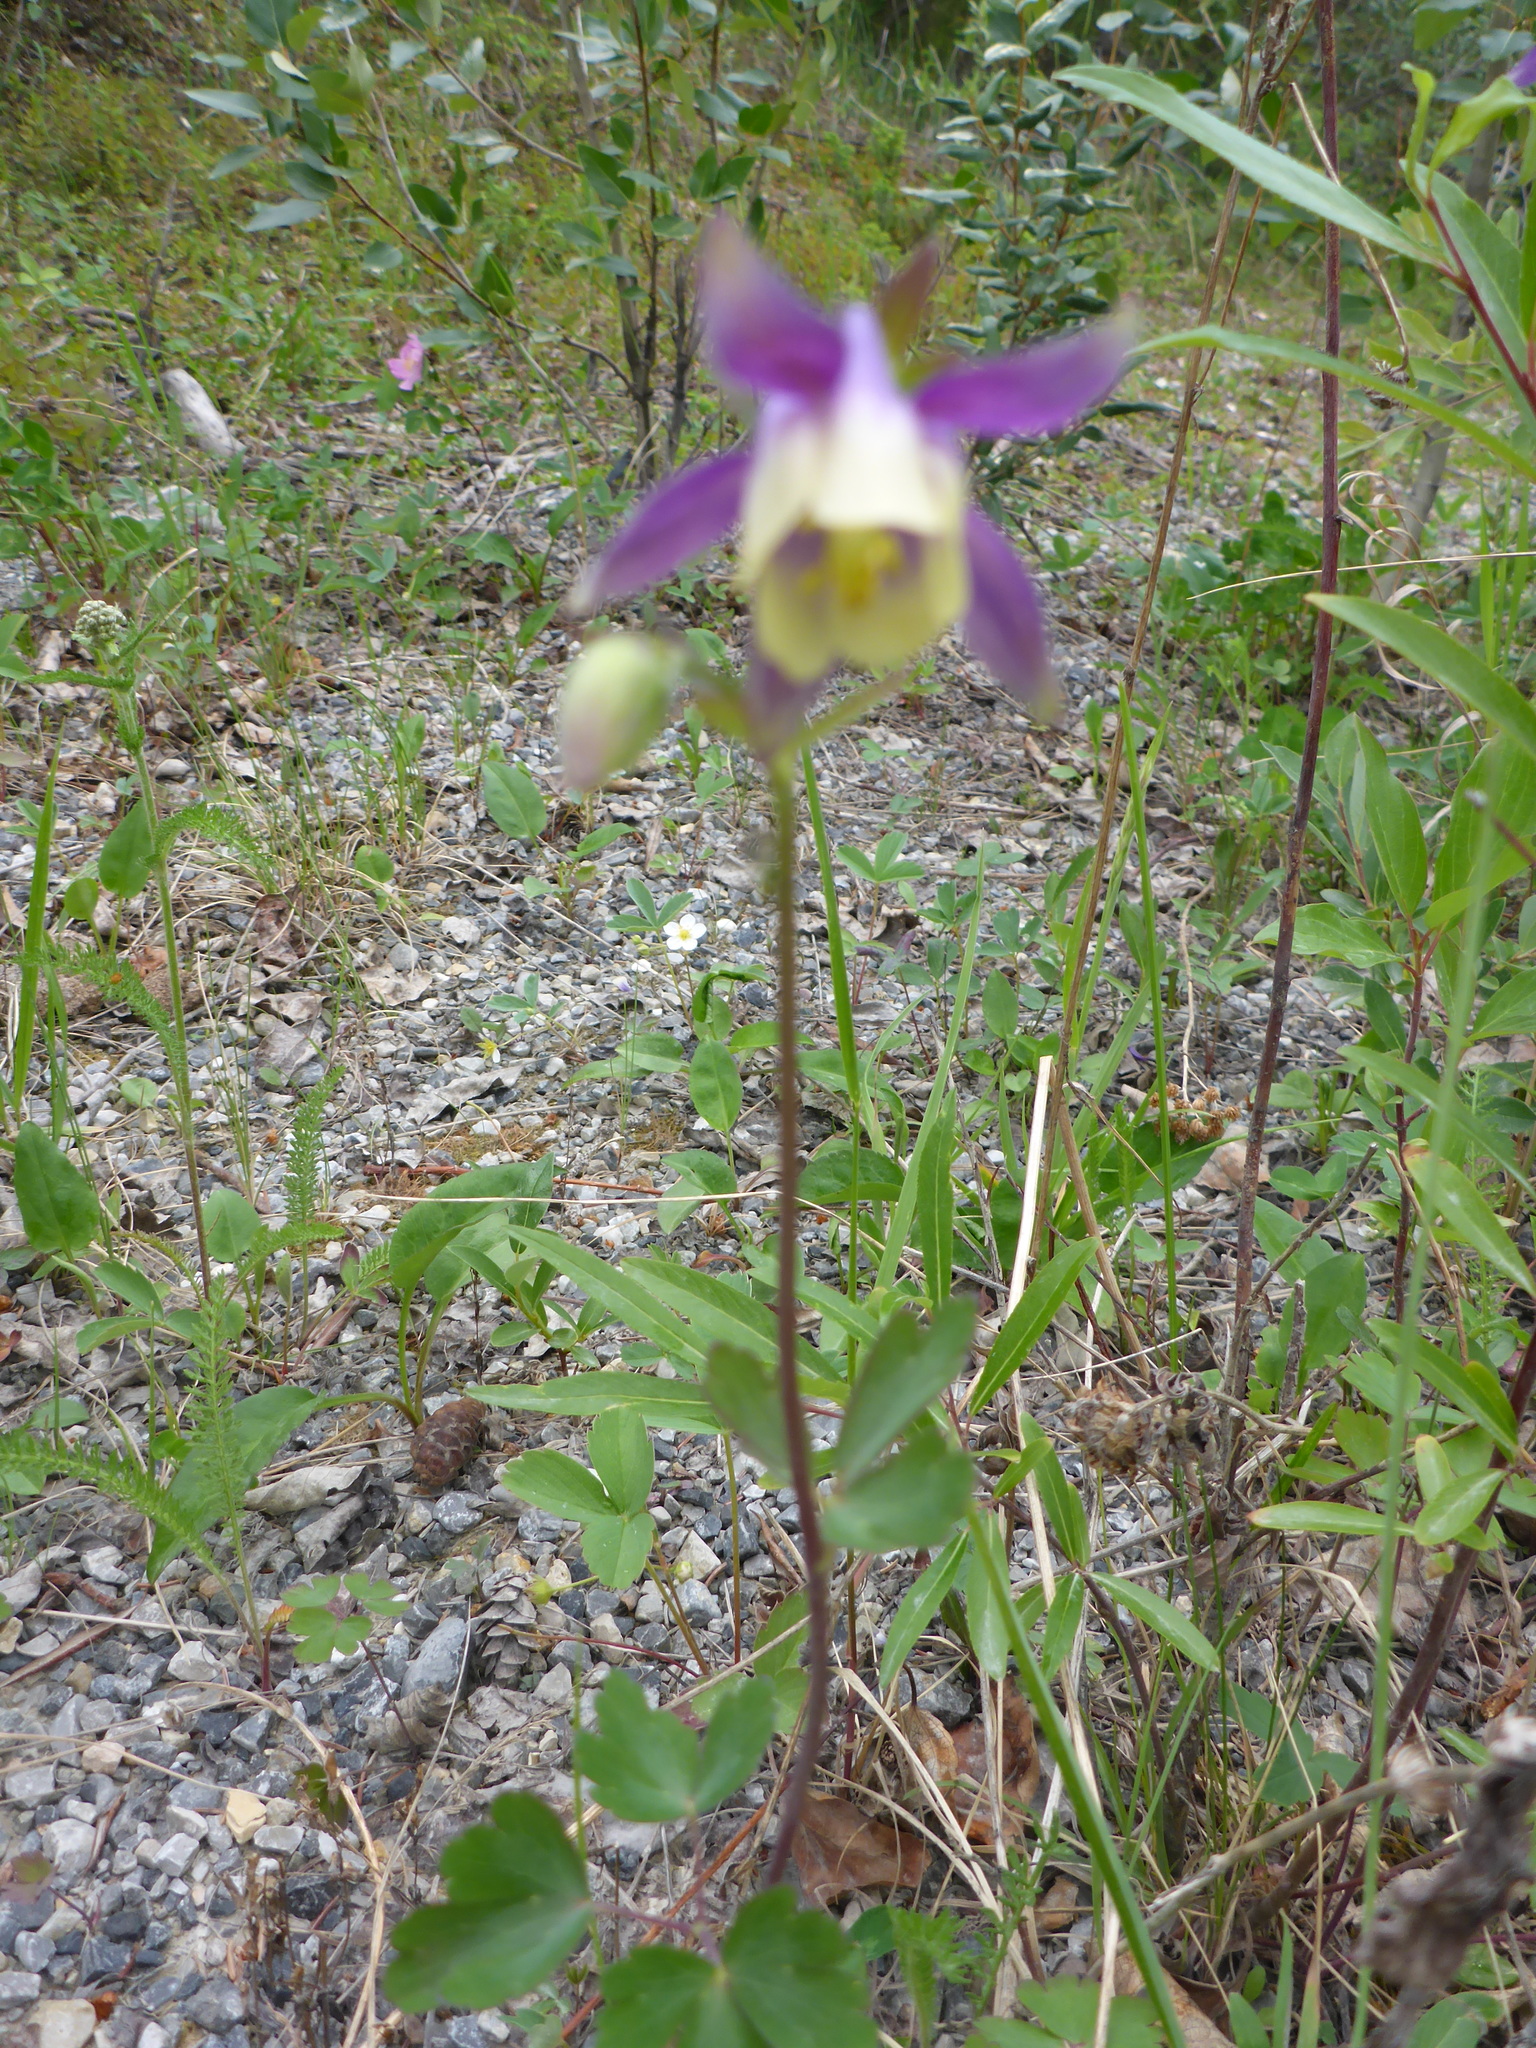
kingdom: Plantae
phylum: Tracheophyta
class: Magnoliopsida
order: Ranunculales
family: Ranunculaceae
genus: Aquilegia
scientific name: Aquilegia brevistyla
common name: Yukon columbine
